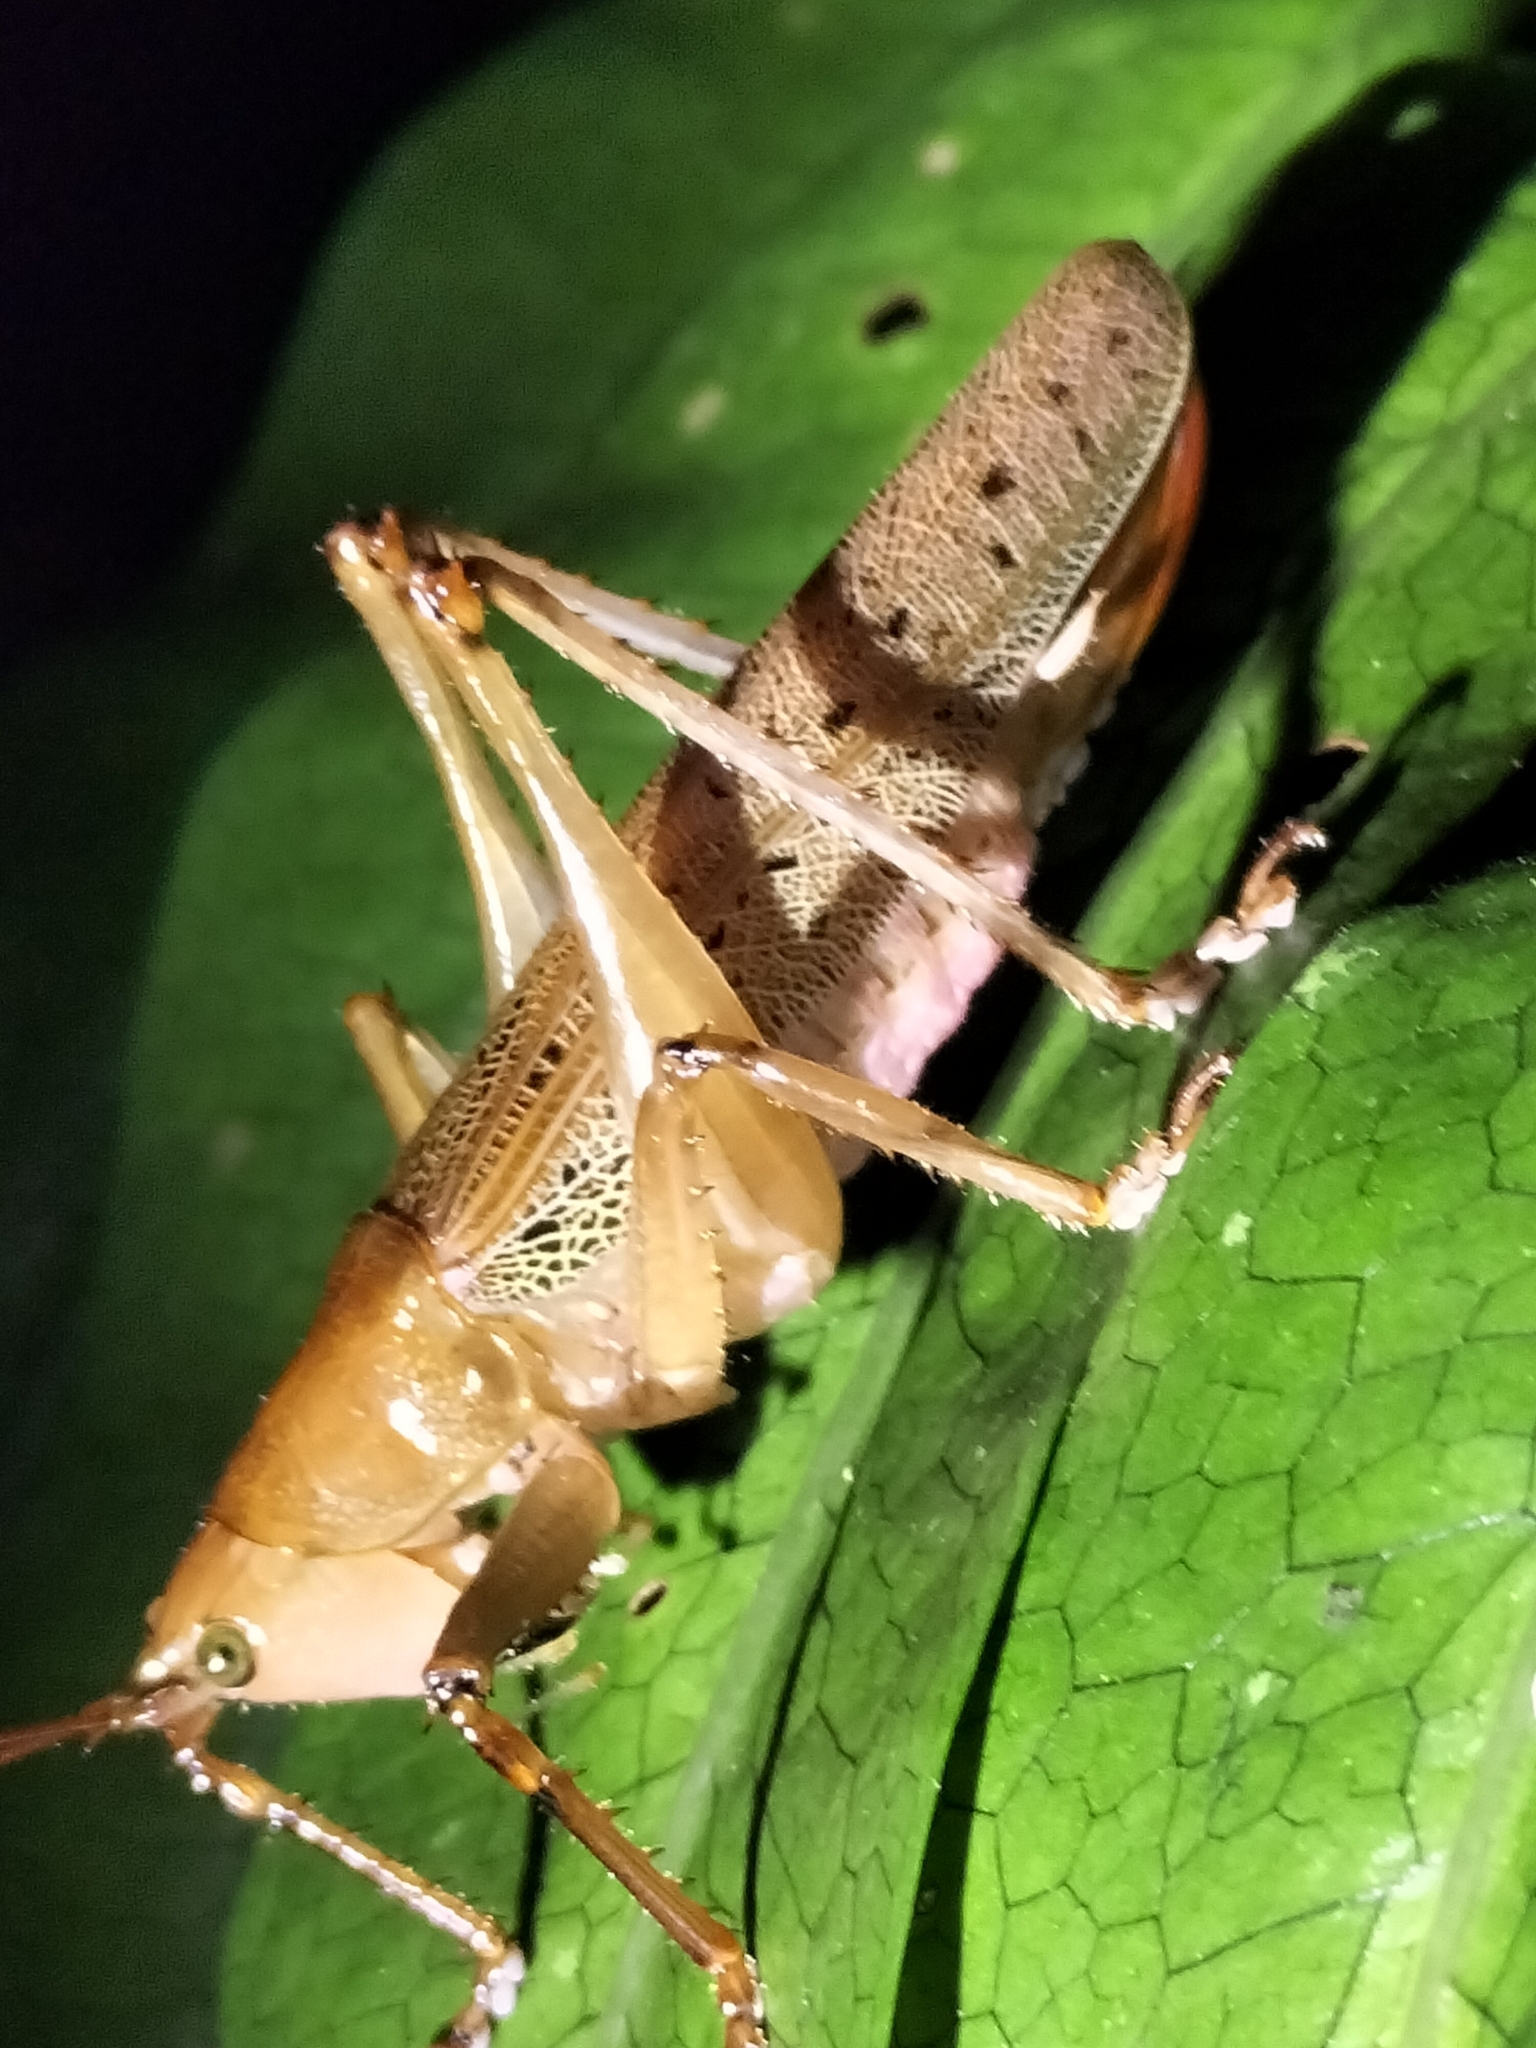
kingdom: Animalia
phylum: Arthropoda
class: Insecta
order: Orthoptera
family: Tettigoniidae
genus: Barbaragraecia
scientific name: Barbaragraecia richardsoni
